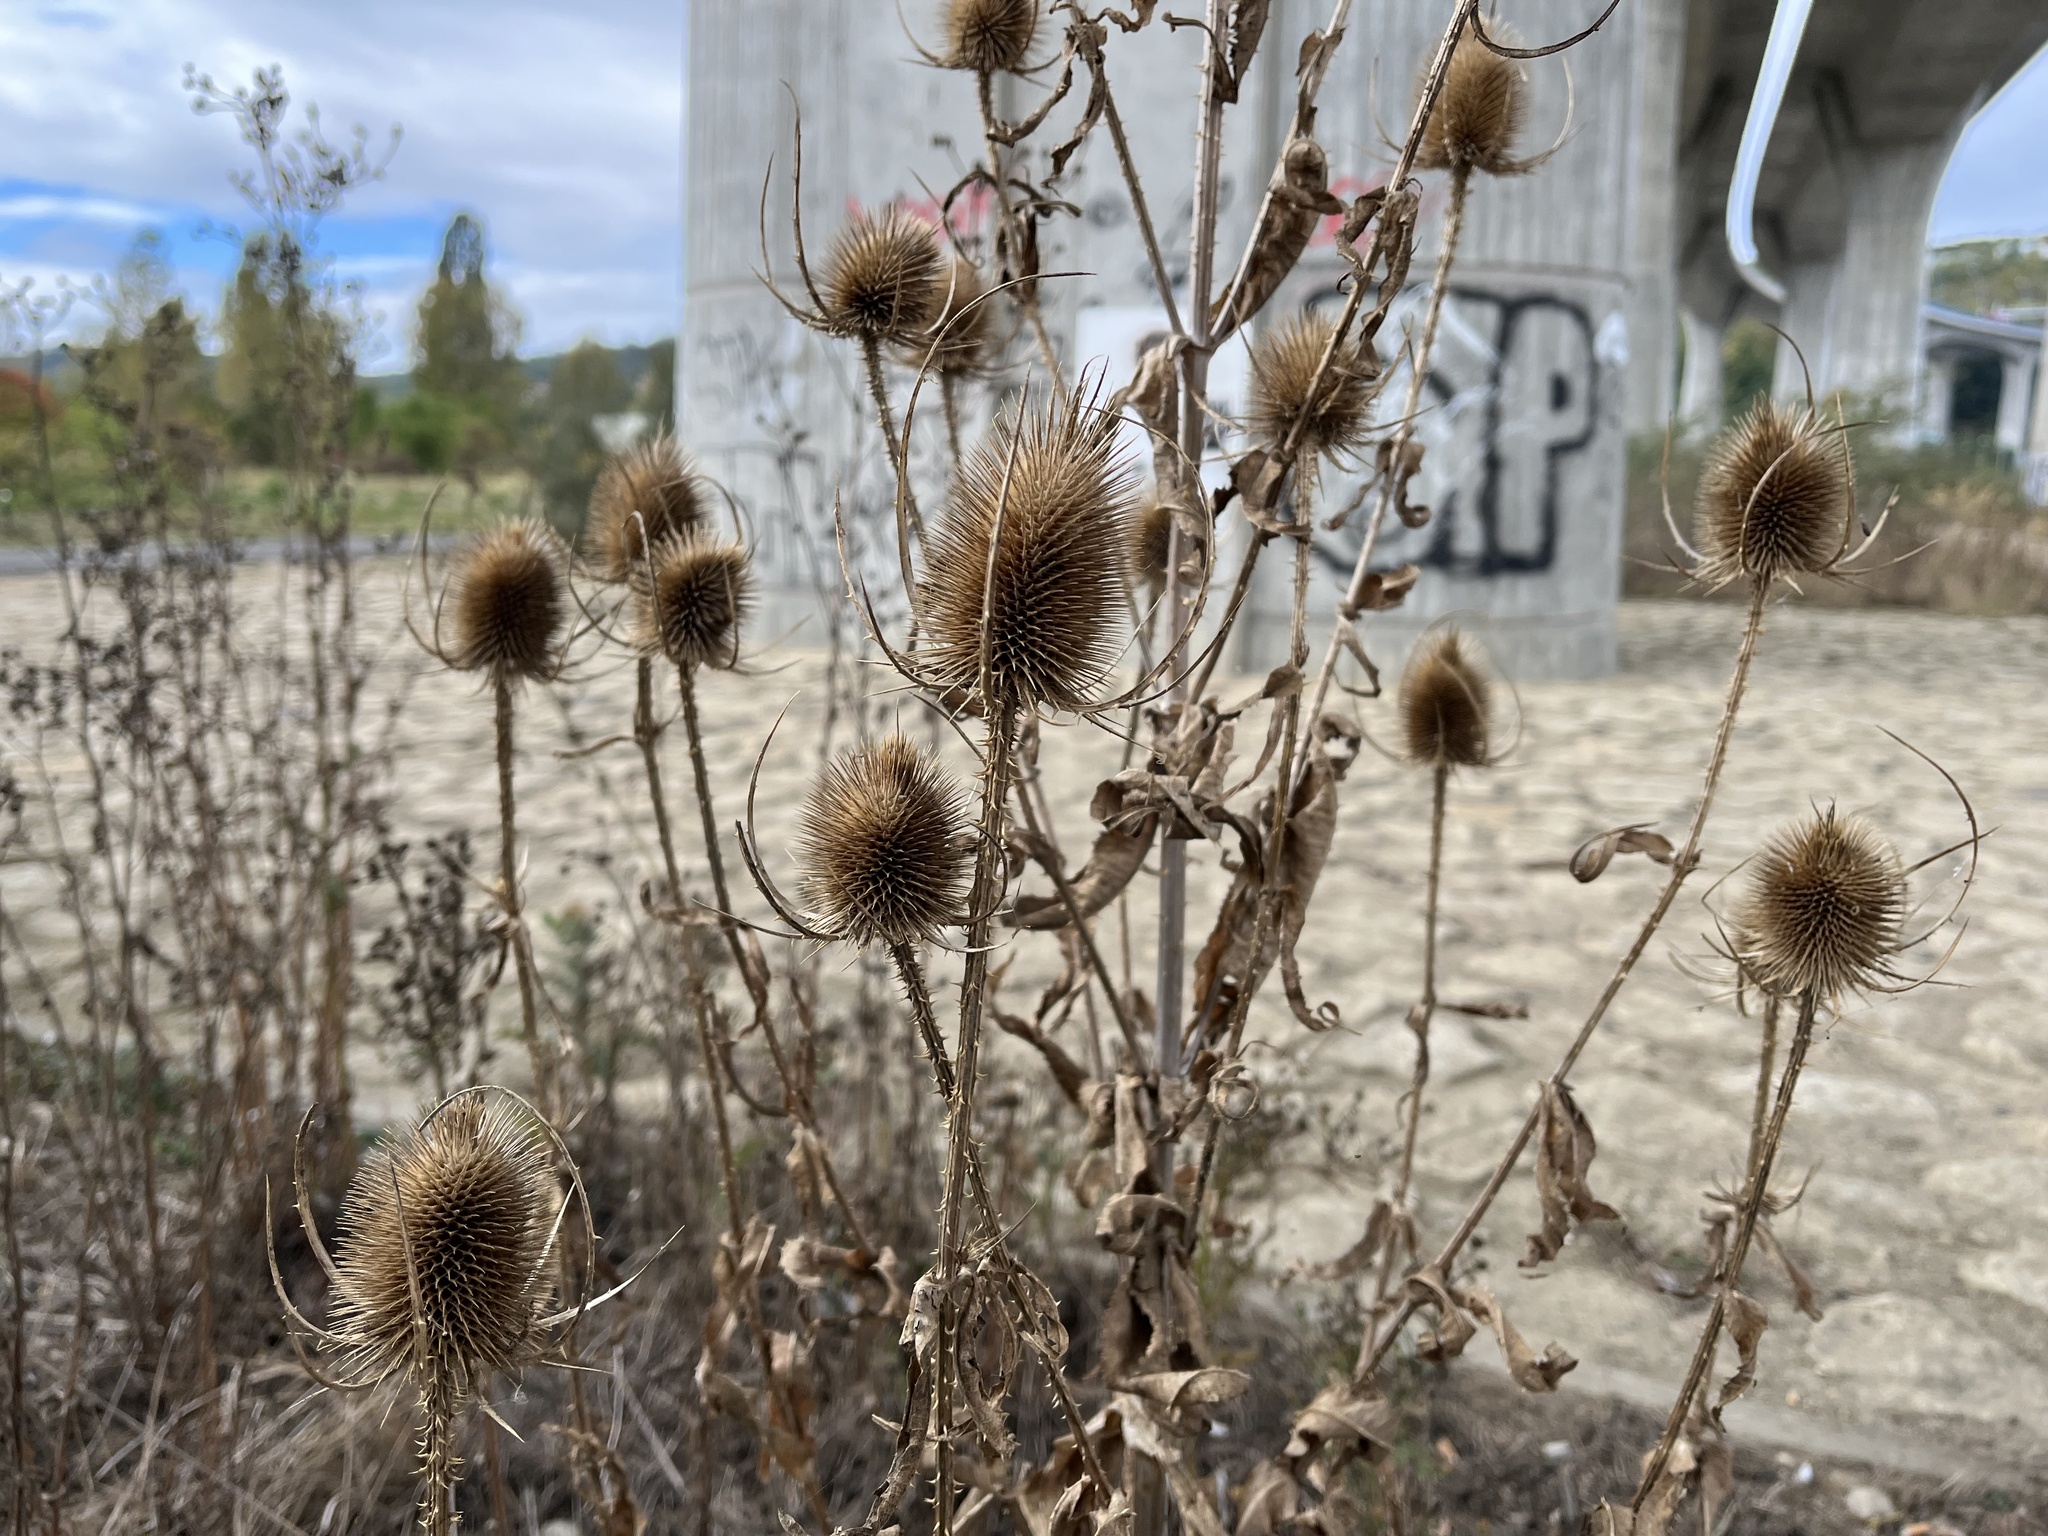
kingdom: Plantae
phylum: Tracheophyta
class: Magnoliopsida
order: Dipsacales
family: Caprifoliaceae
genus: Dipsacus
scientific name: Dipsacus fullonum
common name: Teasel
